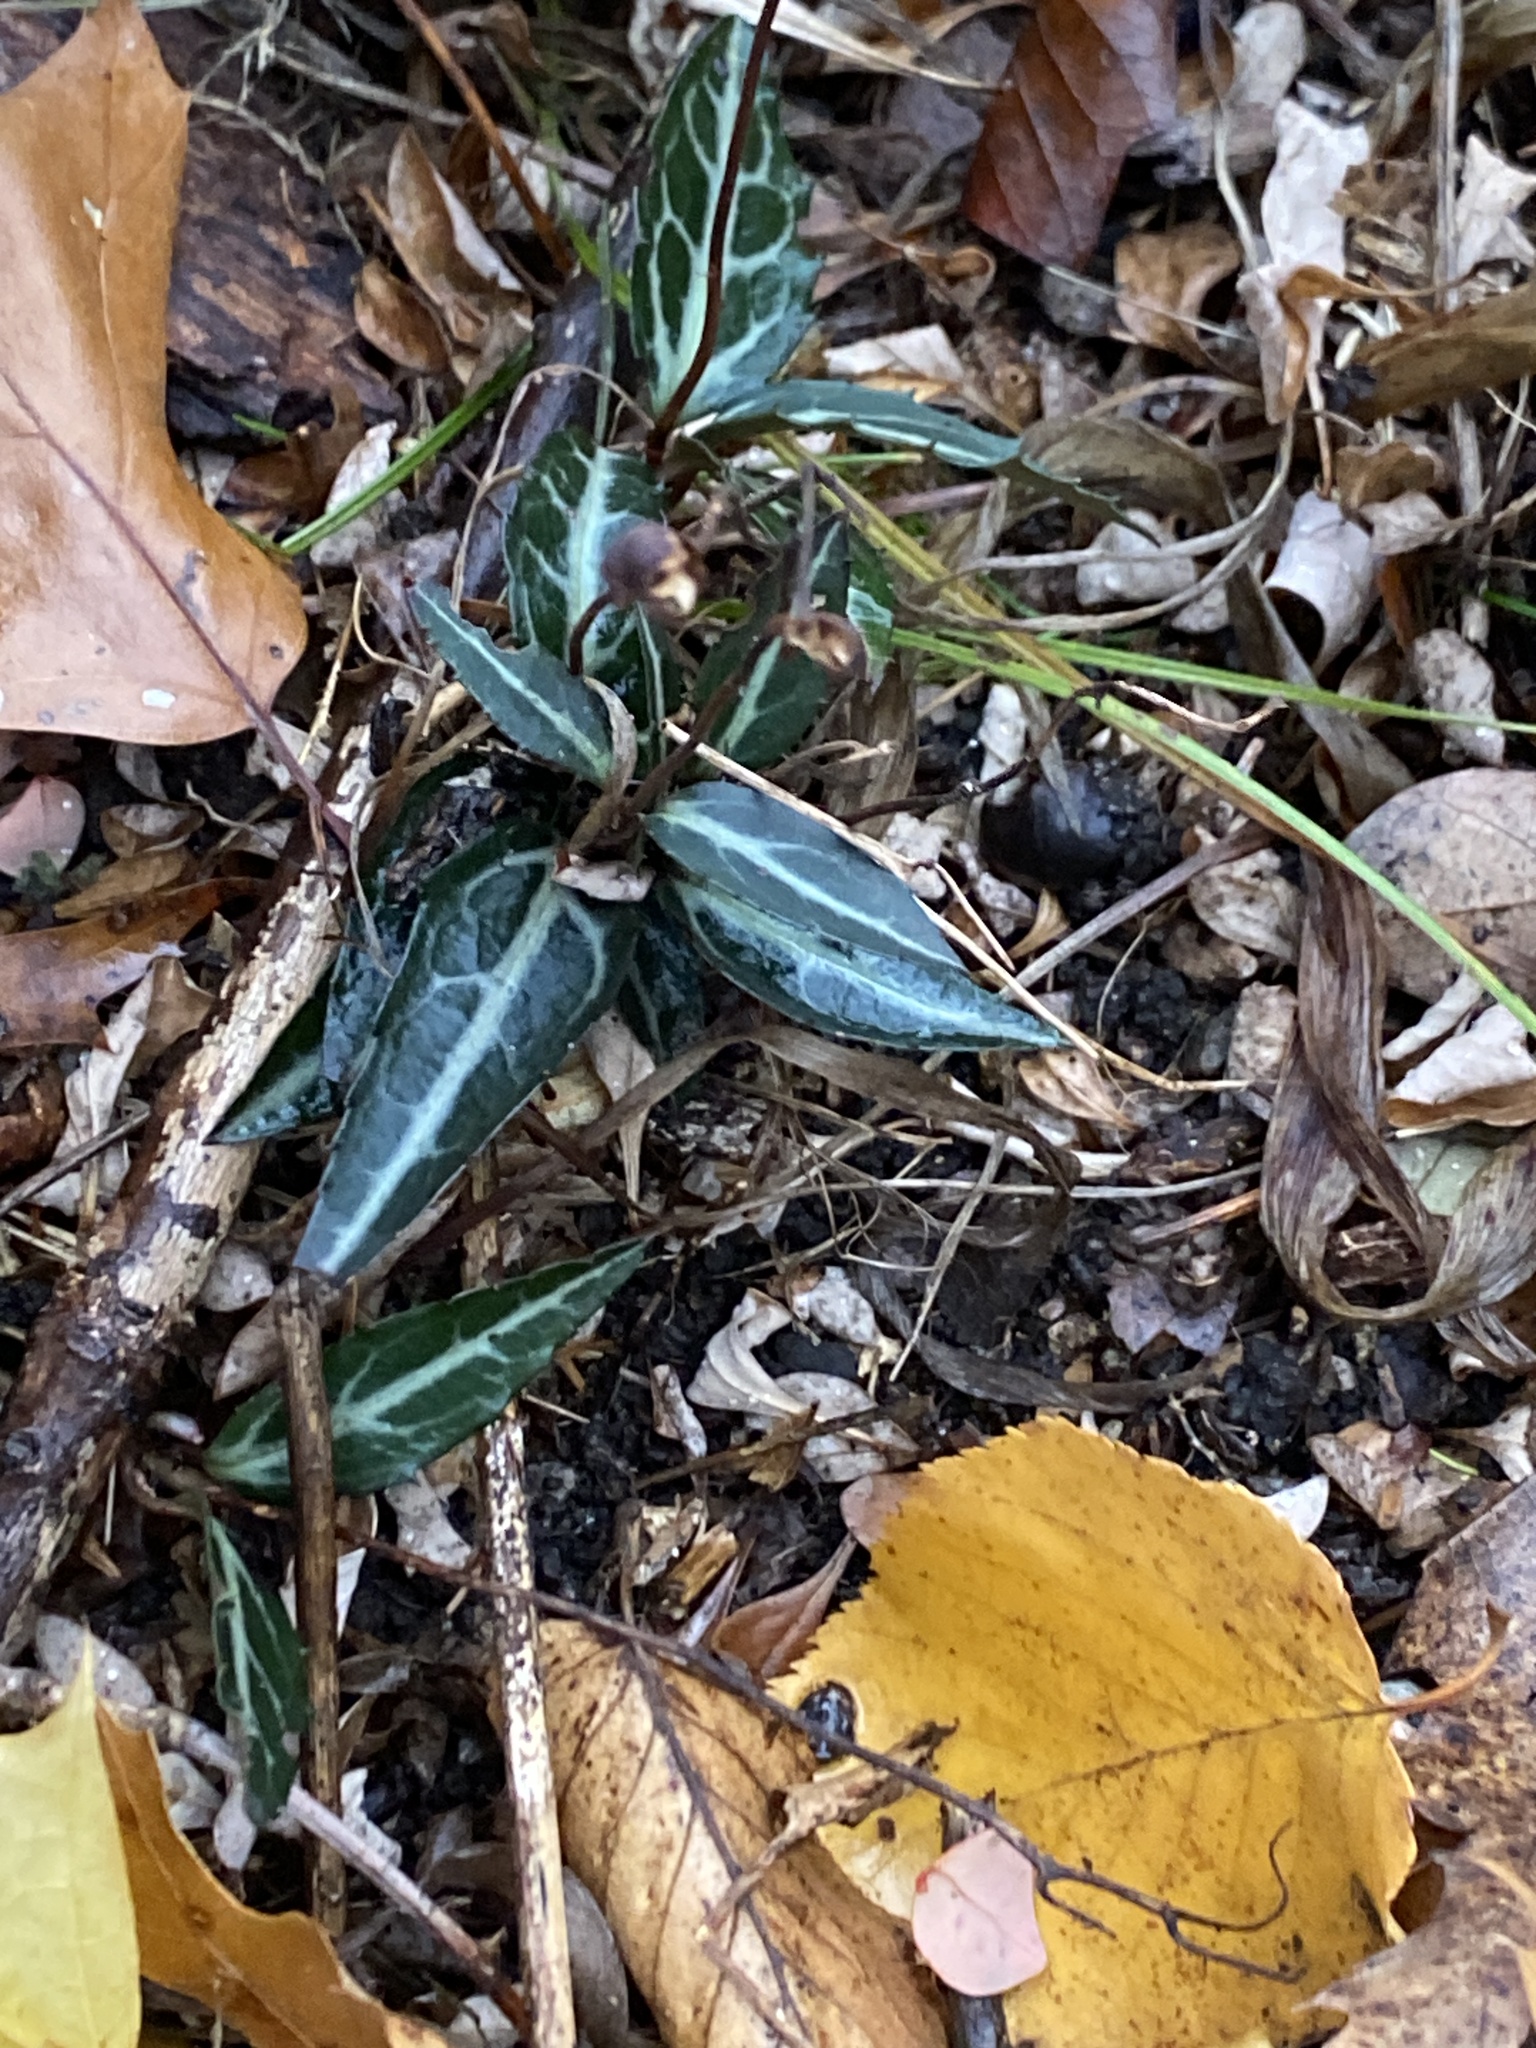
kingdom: Plantae
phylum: Tracheophyta
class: Magnoliopsida
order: Ericales
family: Ericaceae
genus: Chimaphila
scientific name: Chimaphila maculata
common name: Spotted pipsissewa
